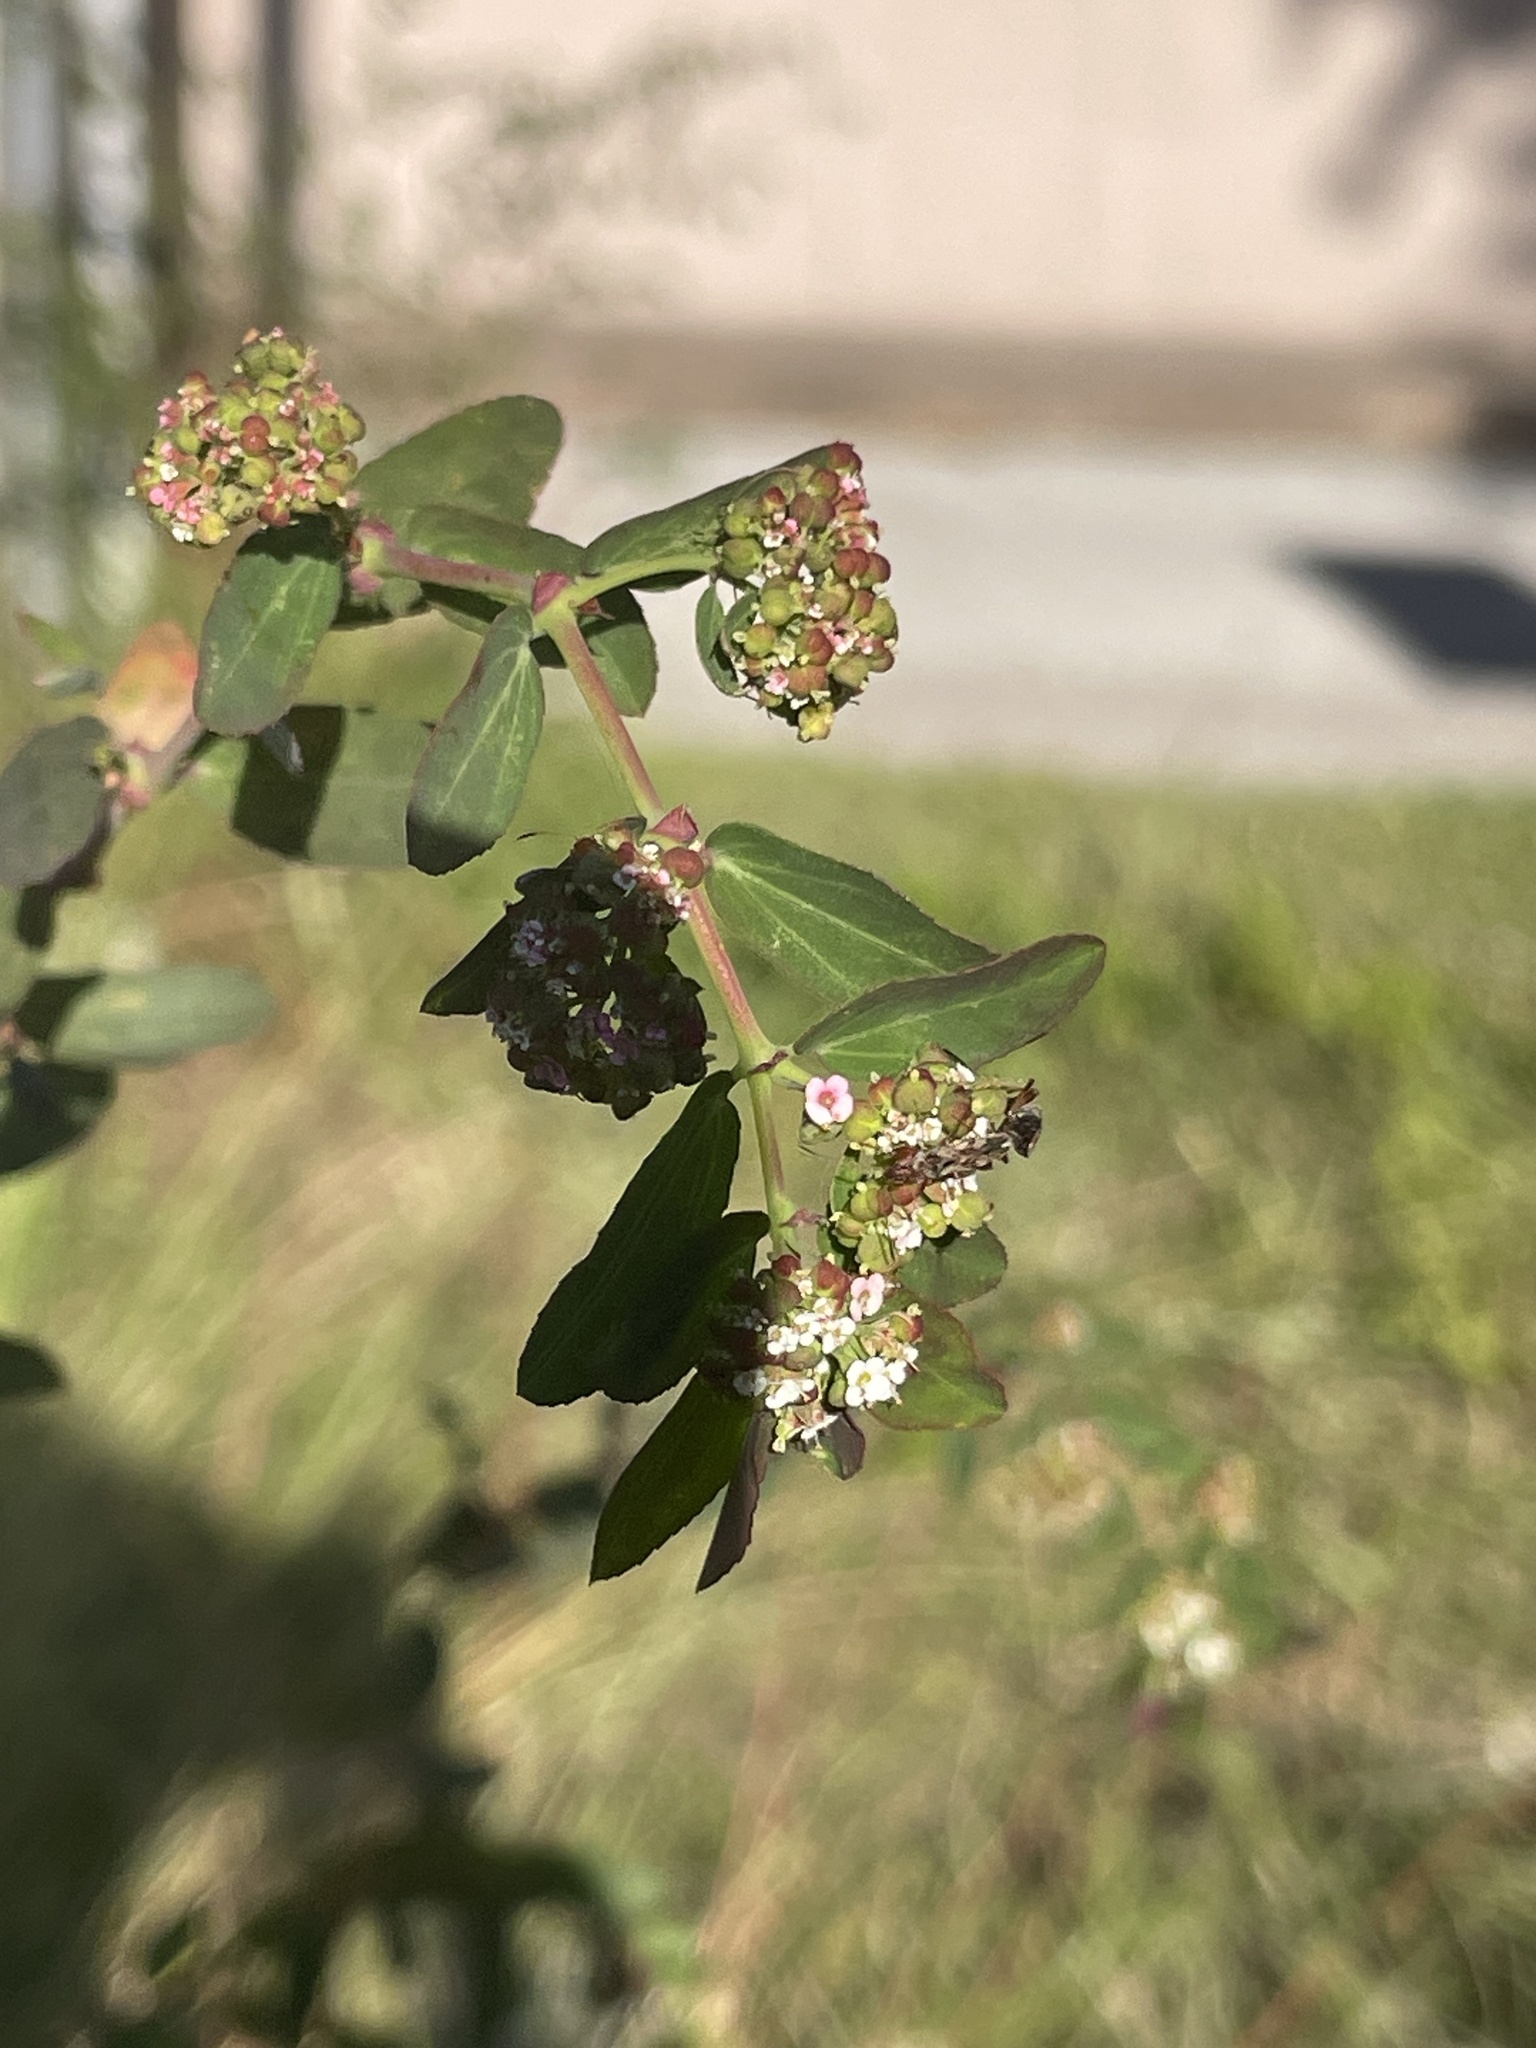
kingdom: Plantae
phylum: Tracheophyta
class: Magnoliopsida
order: Malpighiales
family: Euphorbiaceae
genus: Euphorbia
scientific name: Euphorbia hypericifolia
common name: Graceful sandmat
